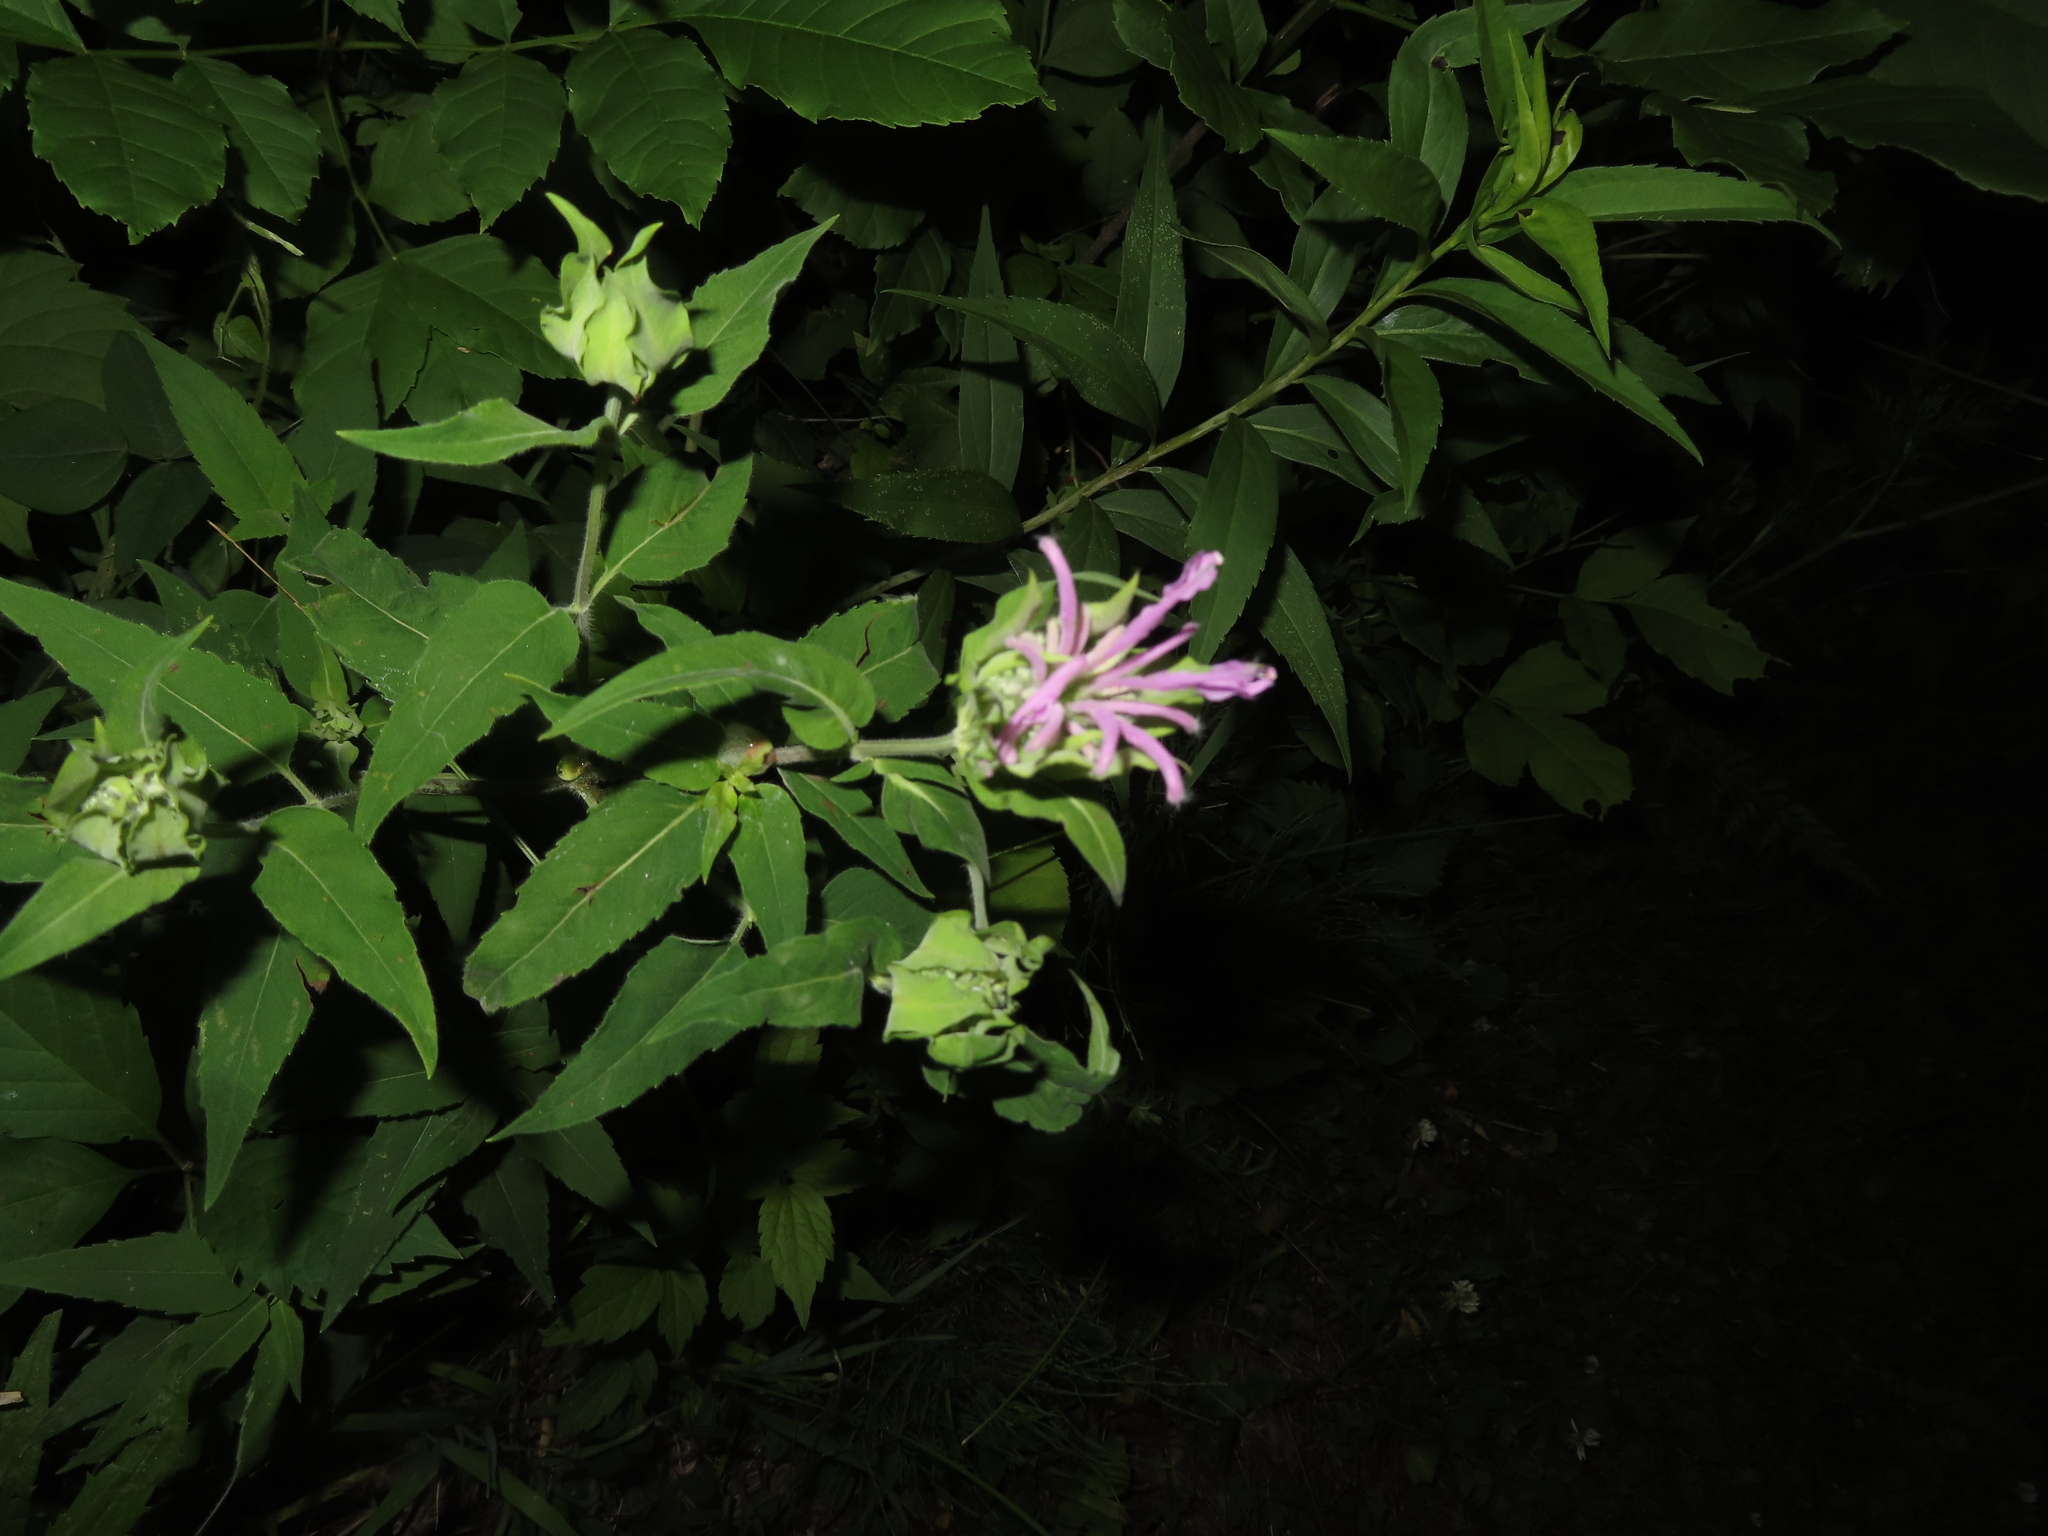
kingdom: Plantae
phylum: Tracheophyta
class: Magnoliopsida
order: Lamiales
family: Lamiaceae
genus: Monarda
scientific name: Monarda fistulosa
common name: Purple beebalm
